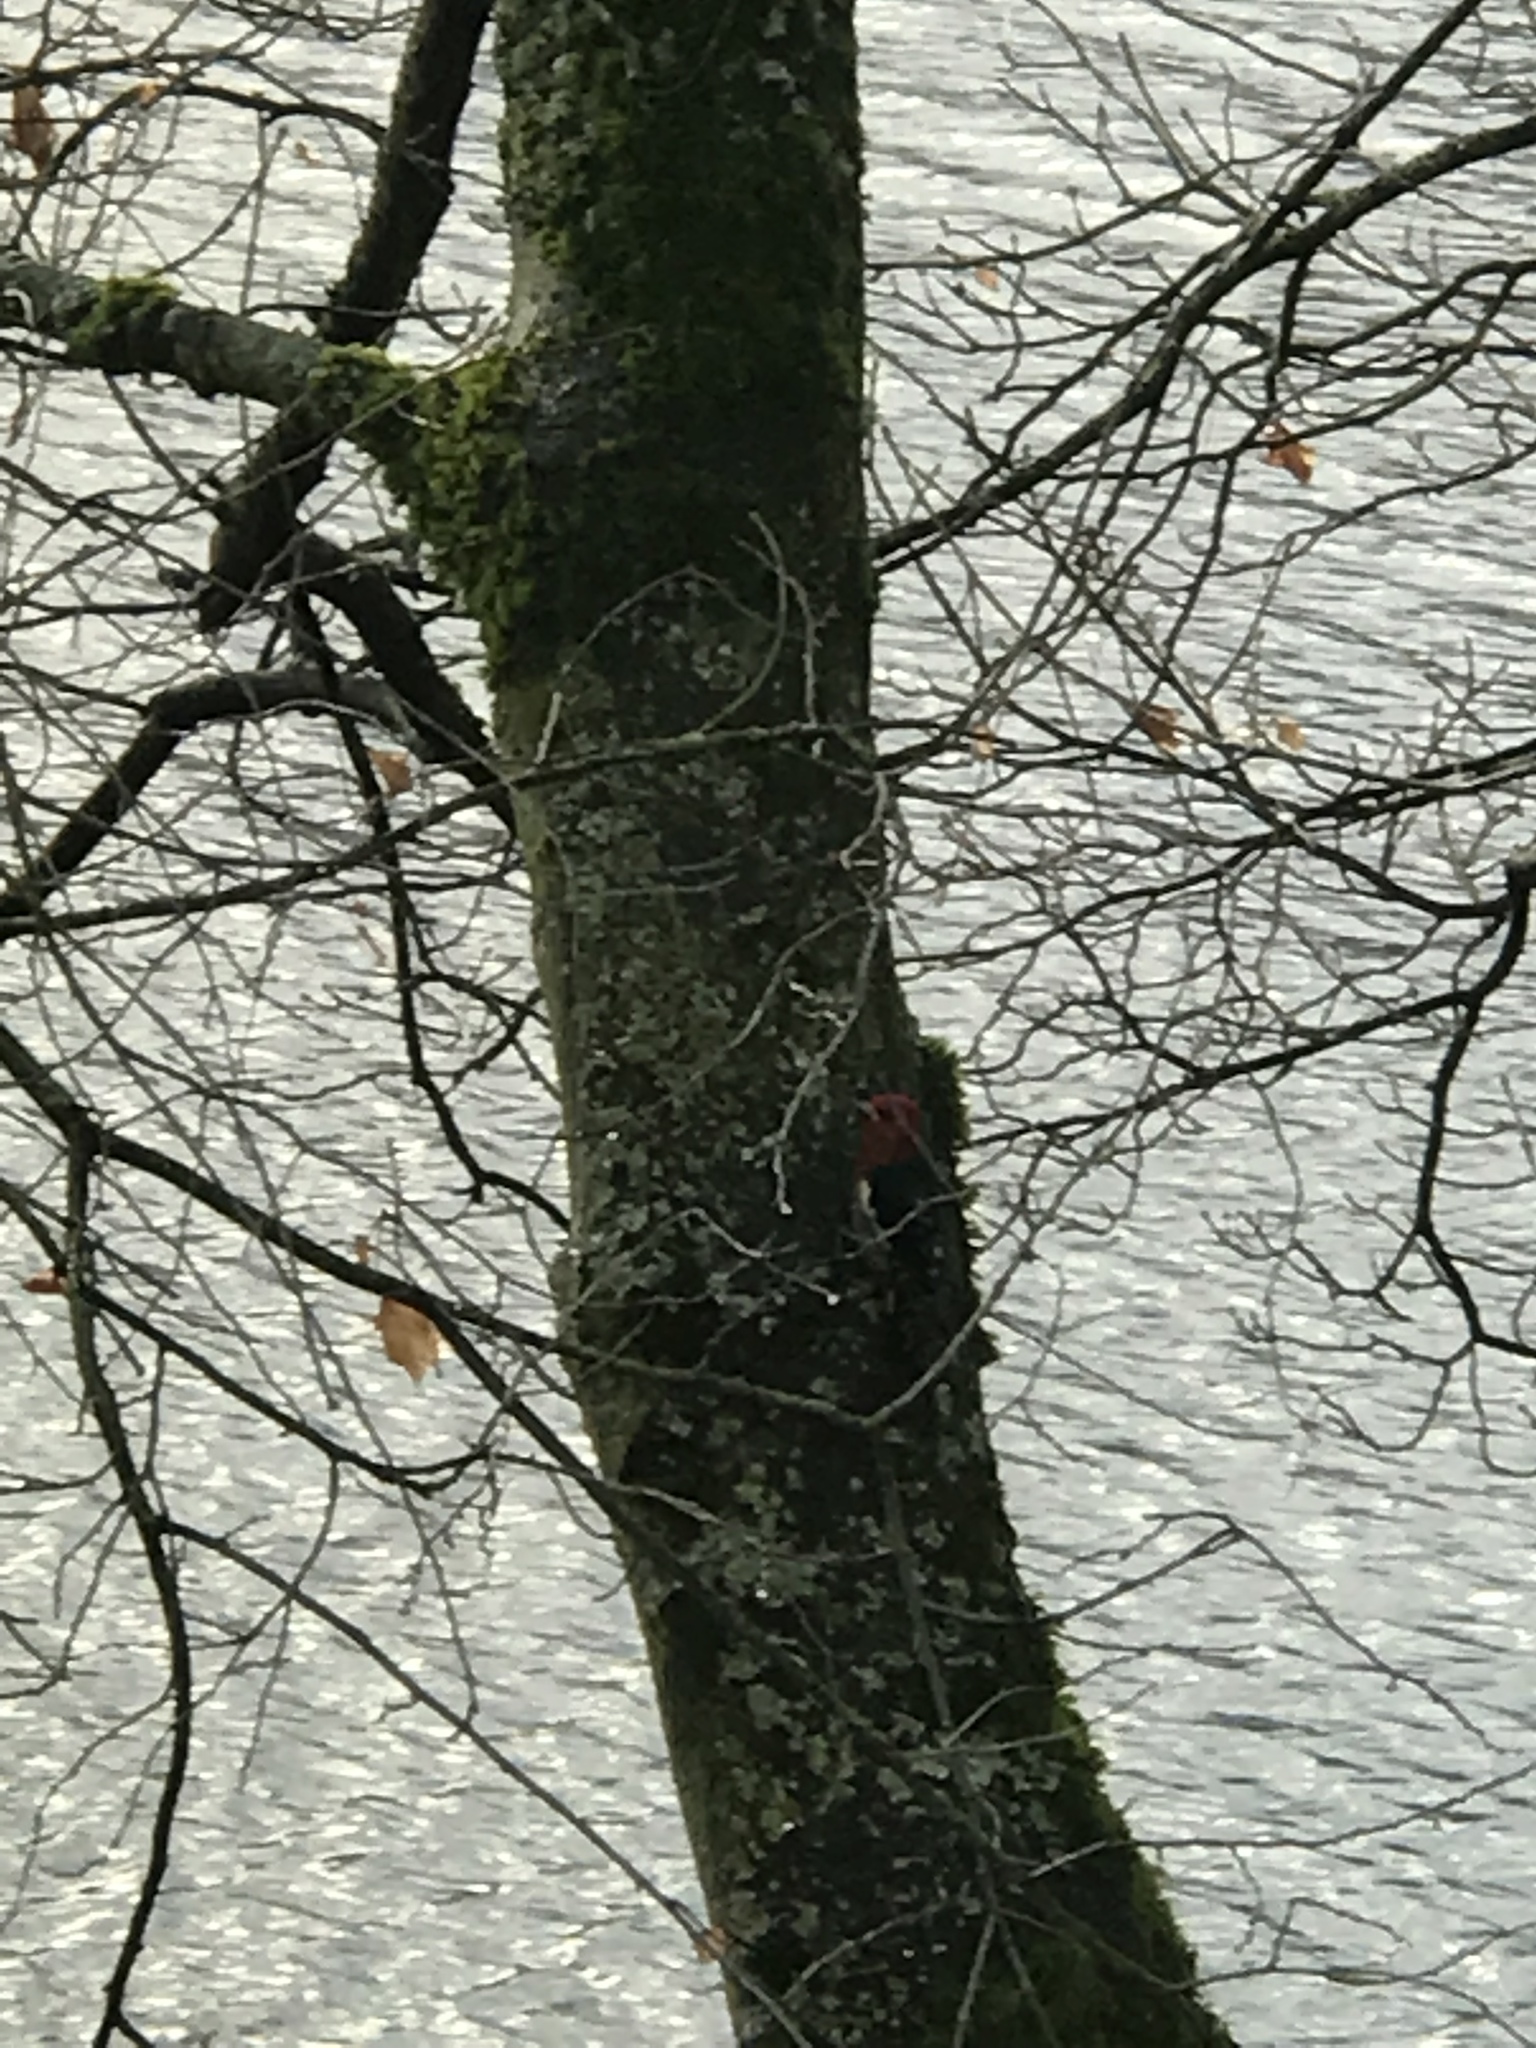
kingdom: Animalia
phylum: Chordata
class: Aves
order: Piciformes
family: Picidae
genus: Sphyrapicus
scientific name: Sphyrapicus ruber
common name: Red-breasted sapsucker
